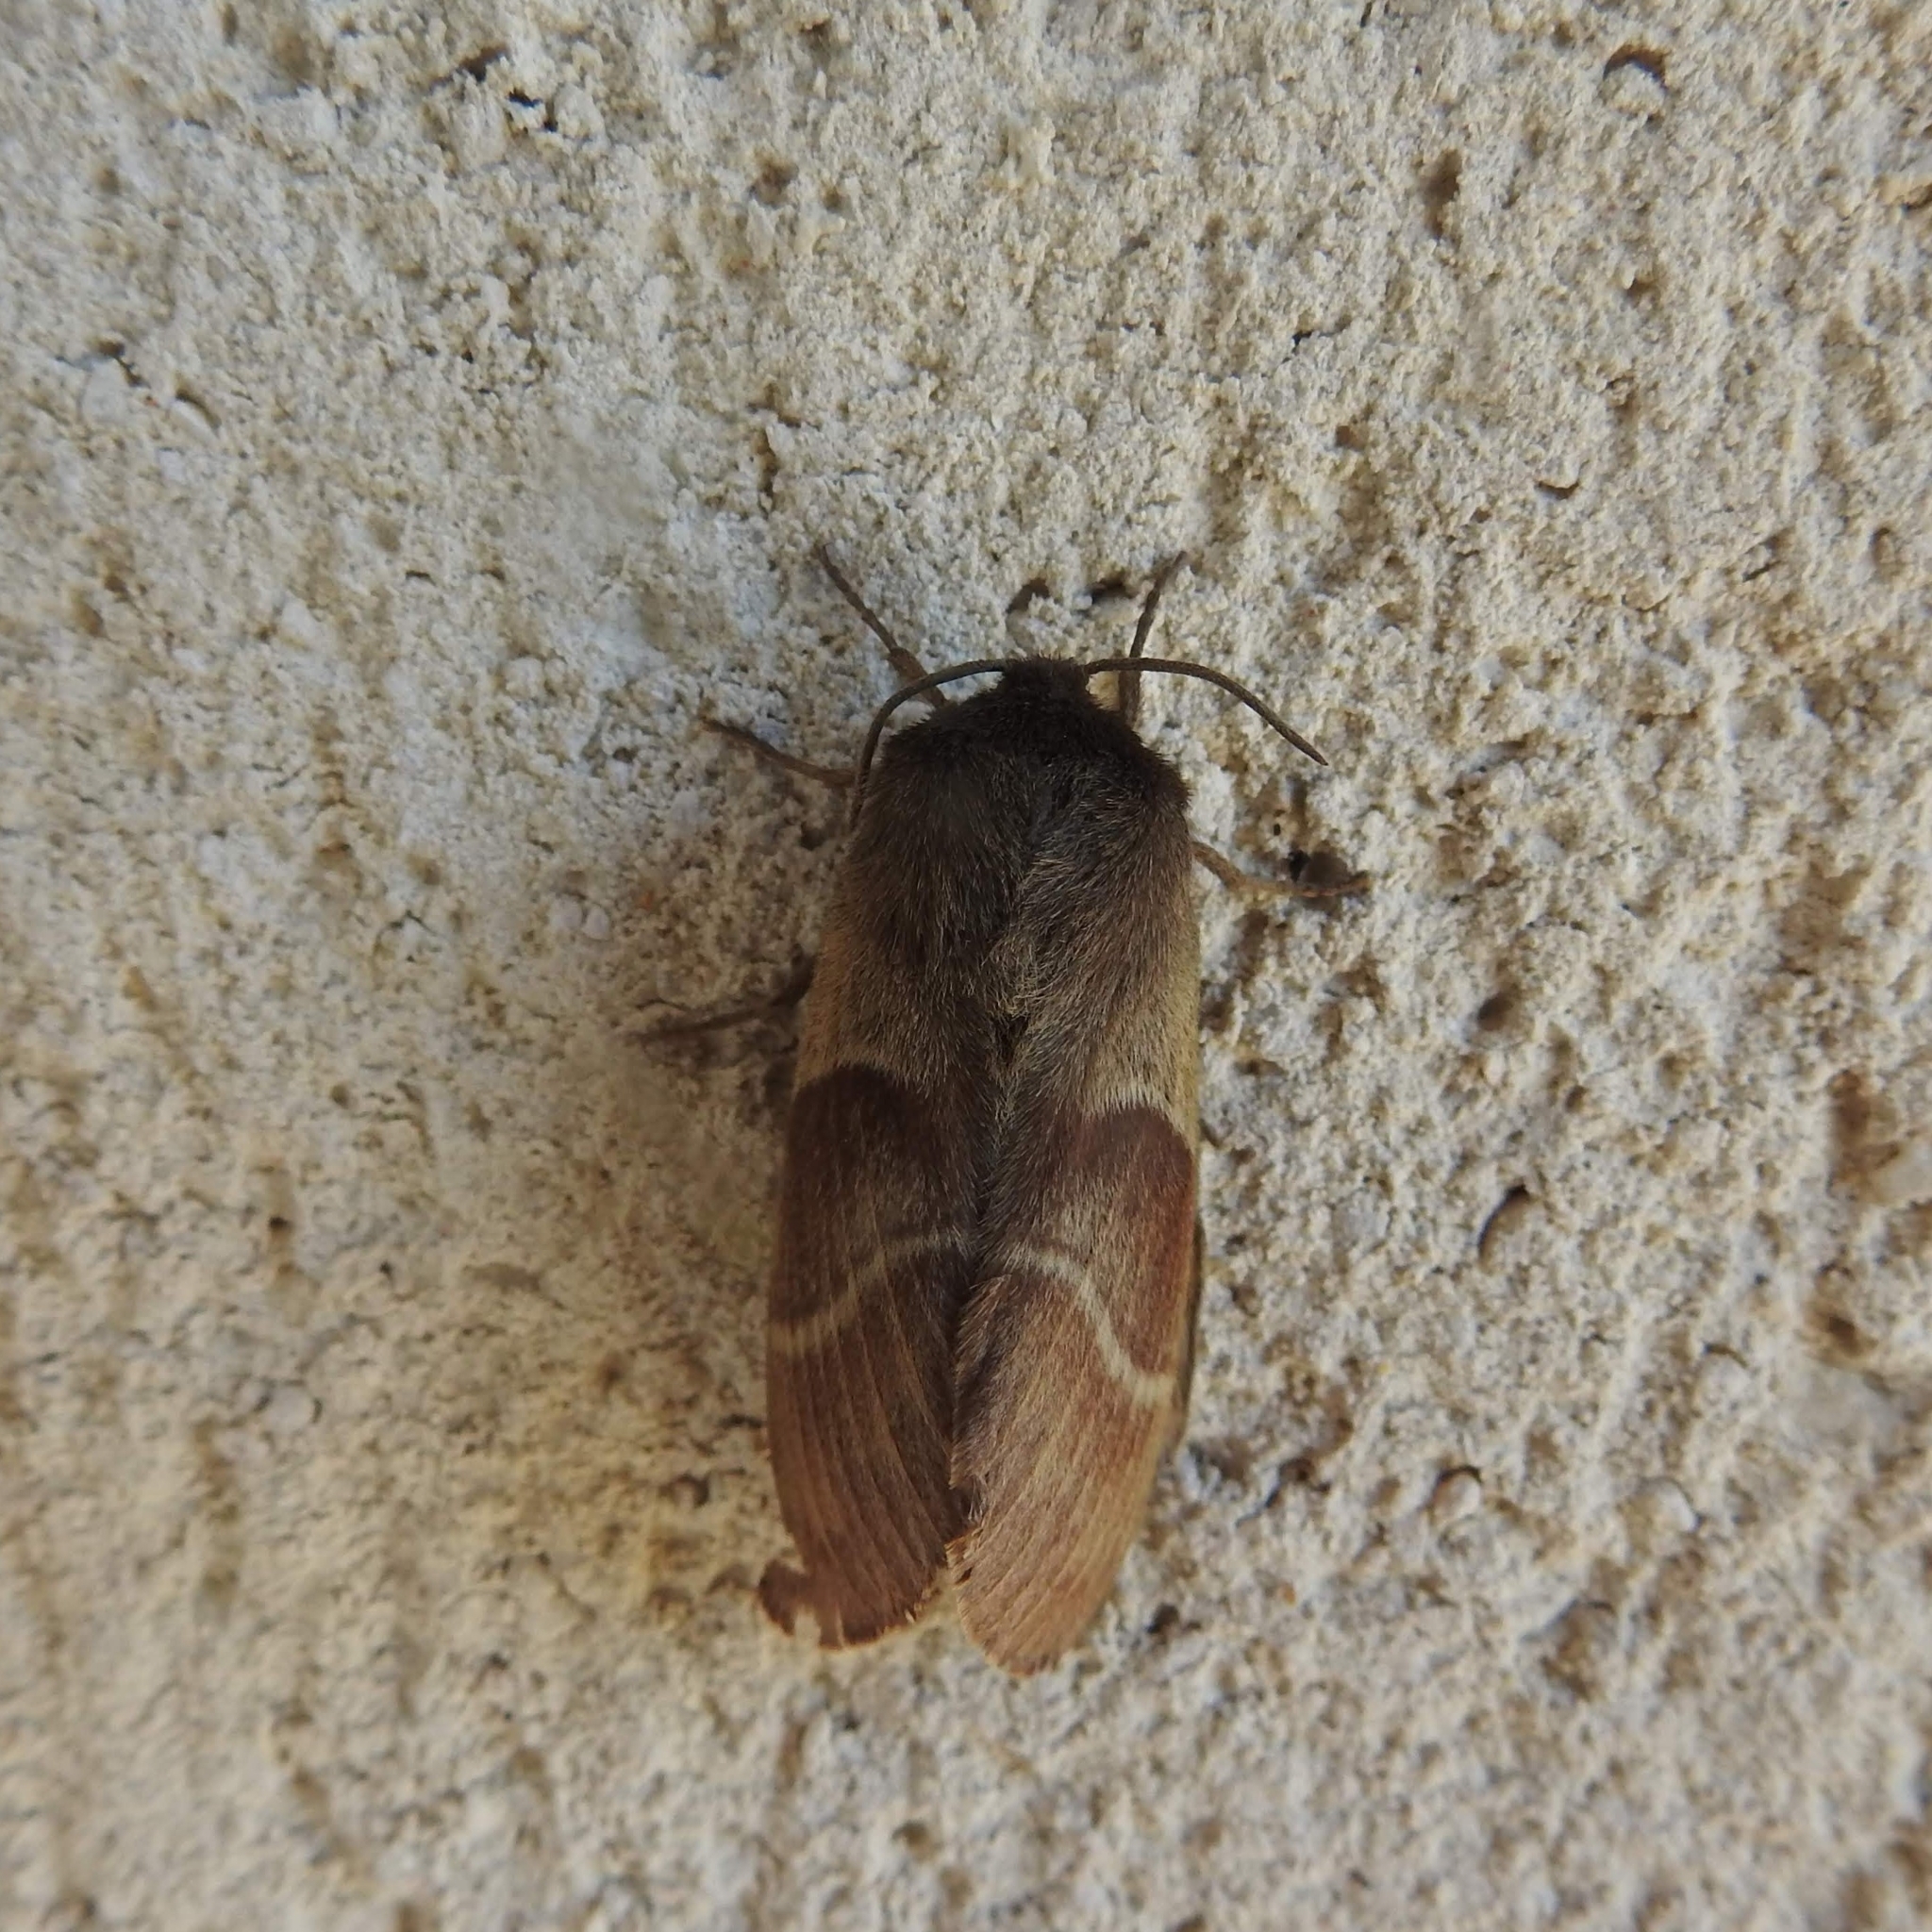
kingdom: Animalia
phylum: Arthropoda
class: Insecta
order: Lepidoptera
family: Lasiocampidae
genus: Macrothylacia
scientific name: Macrothylacia rubi
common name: Fox moth
